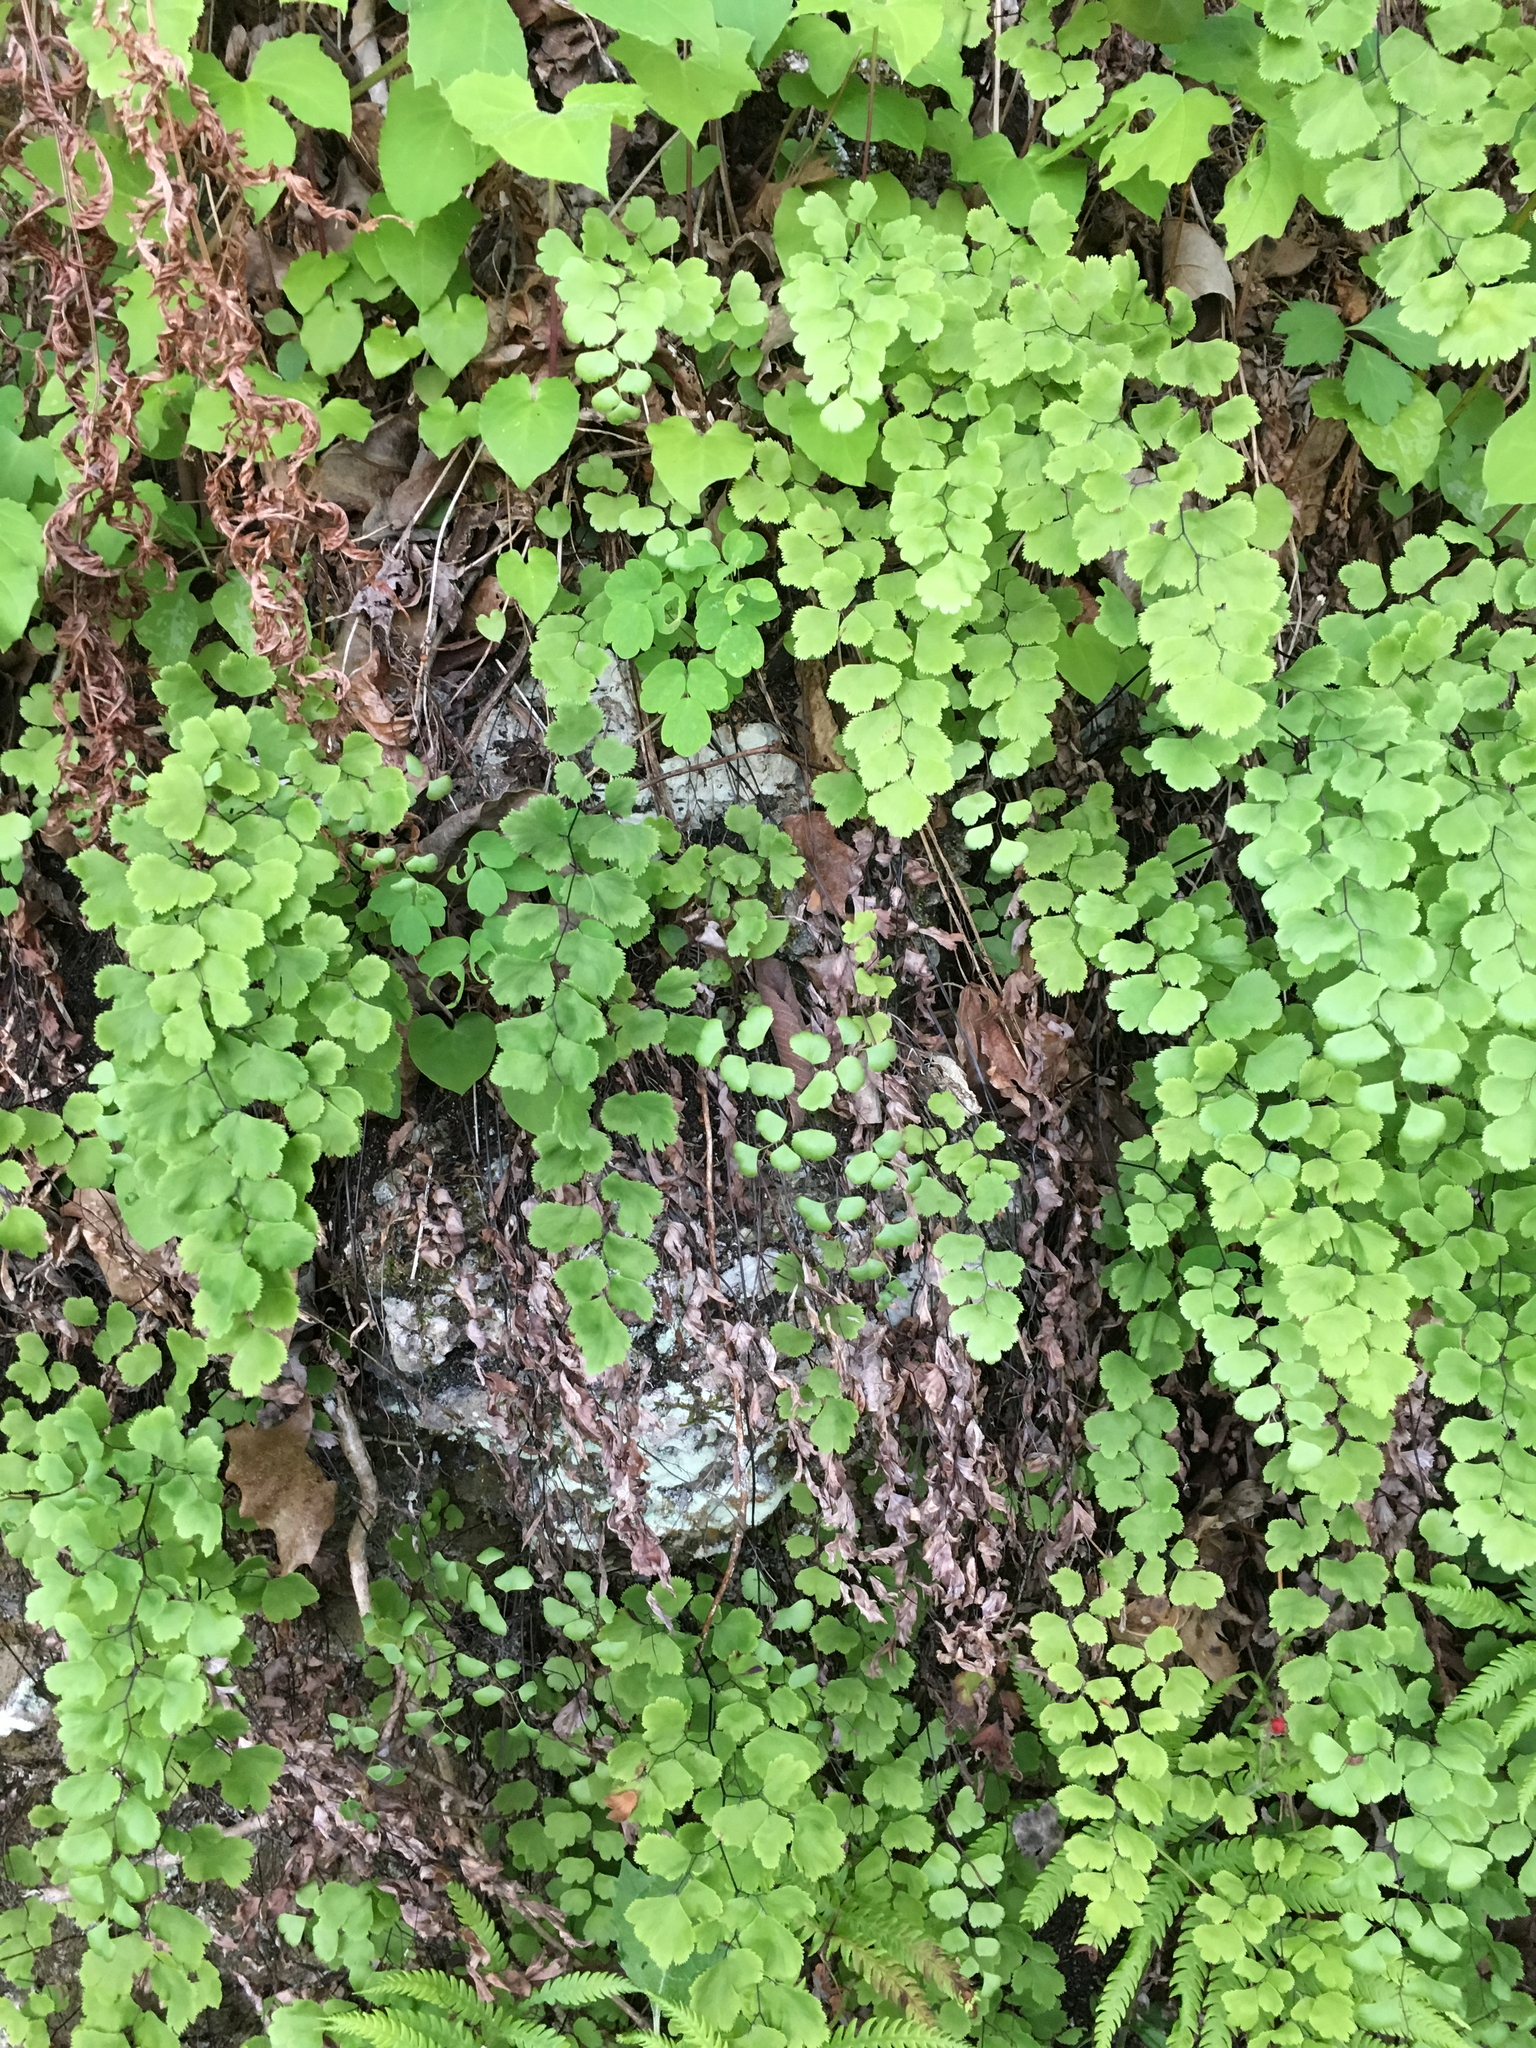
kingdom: Plantae
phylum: Tracheophyta
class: Polypodiopsida
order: Polypodiales
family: Pteridaceae
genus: Adiantum
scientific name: Adiantum capillus-veneris
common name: Maidenhair fern
